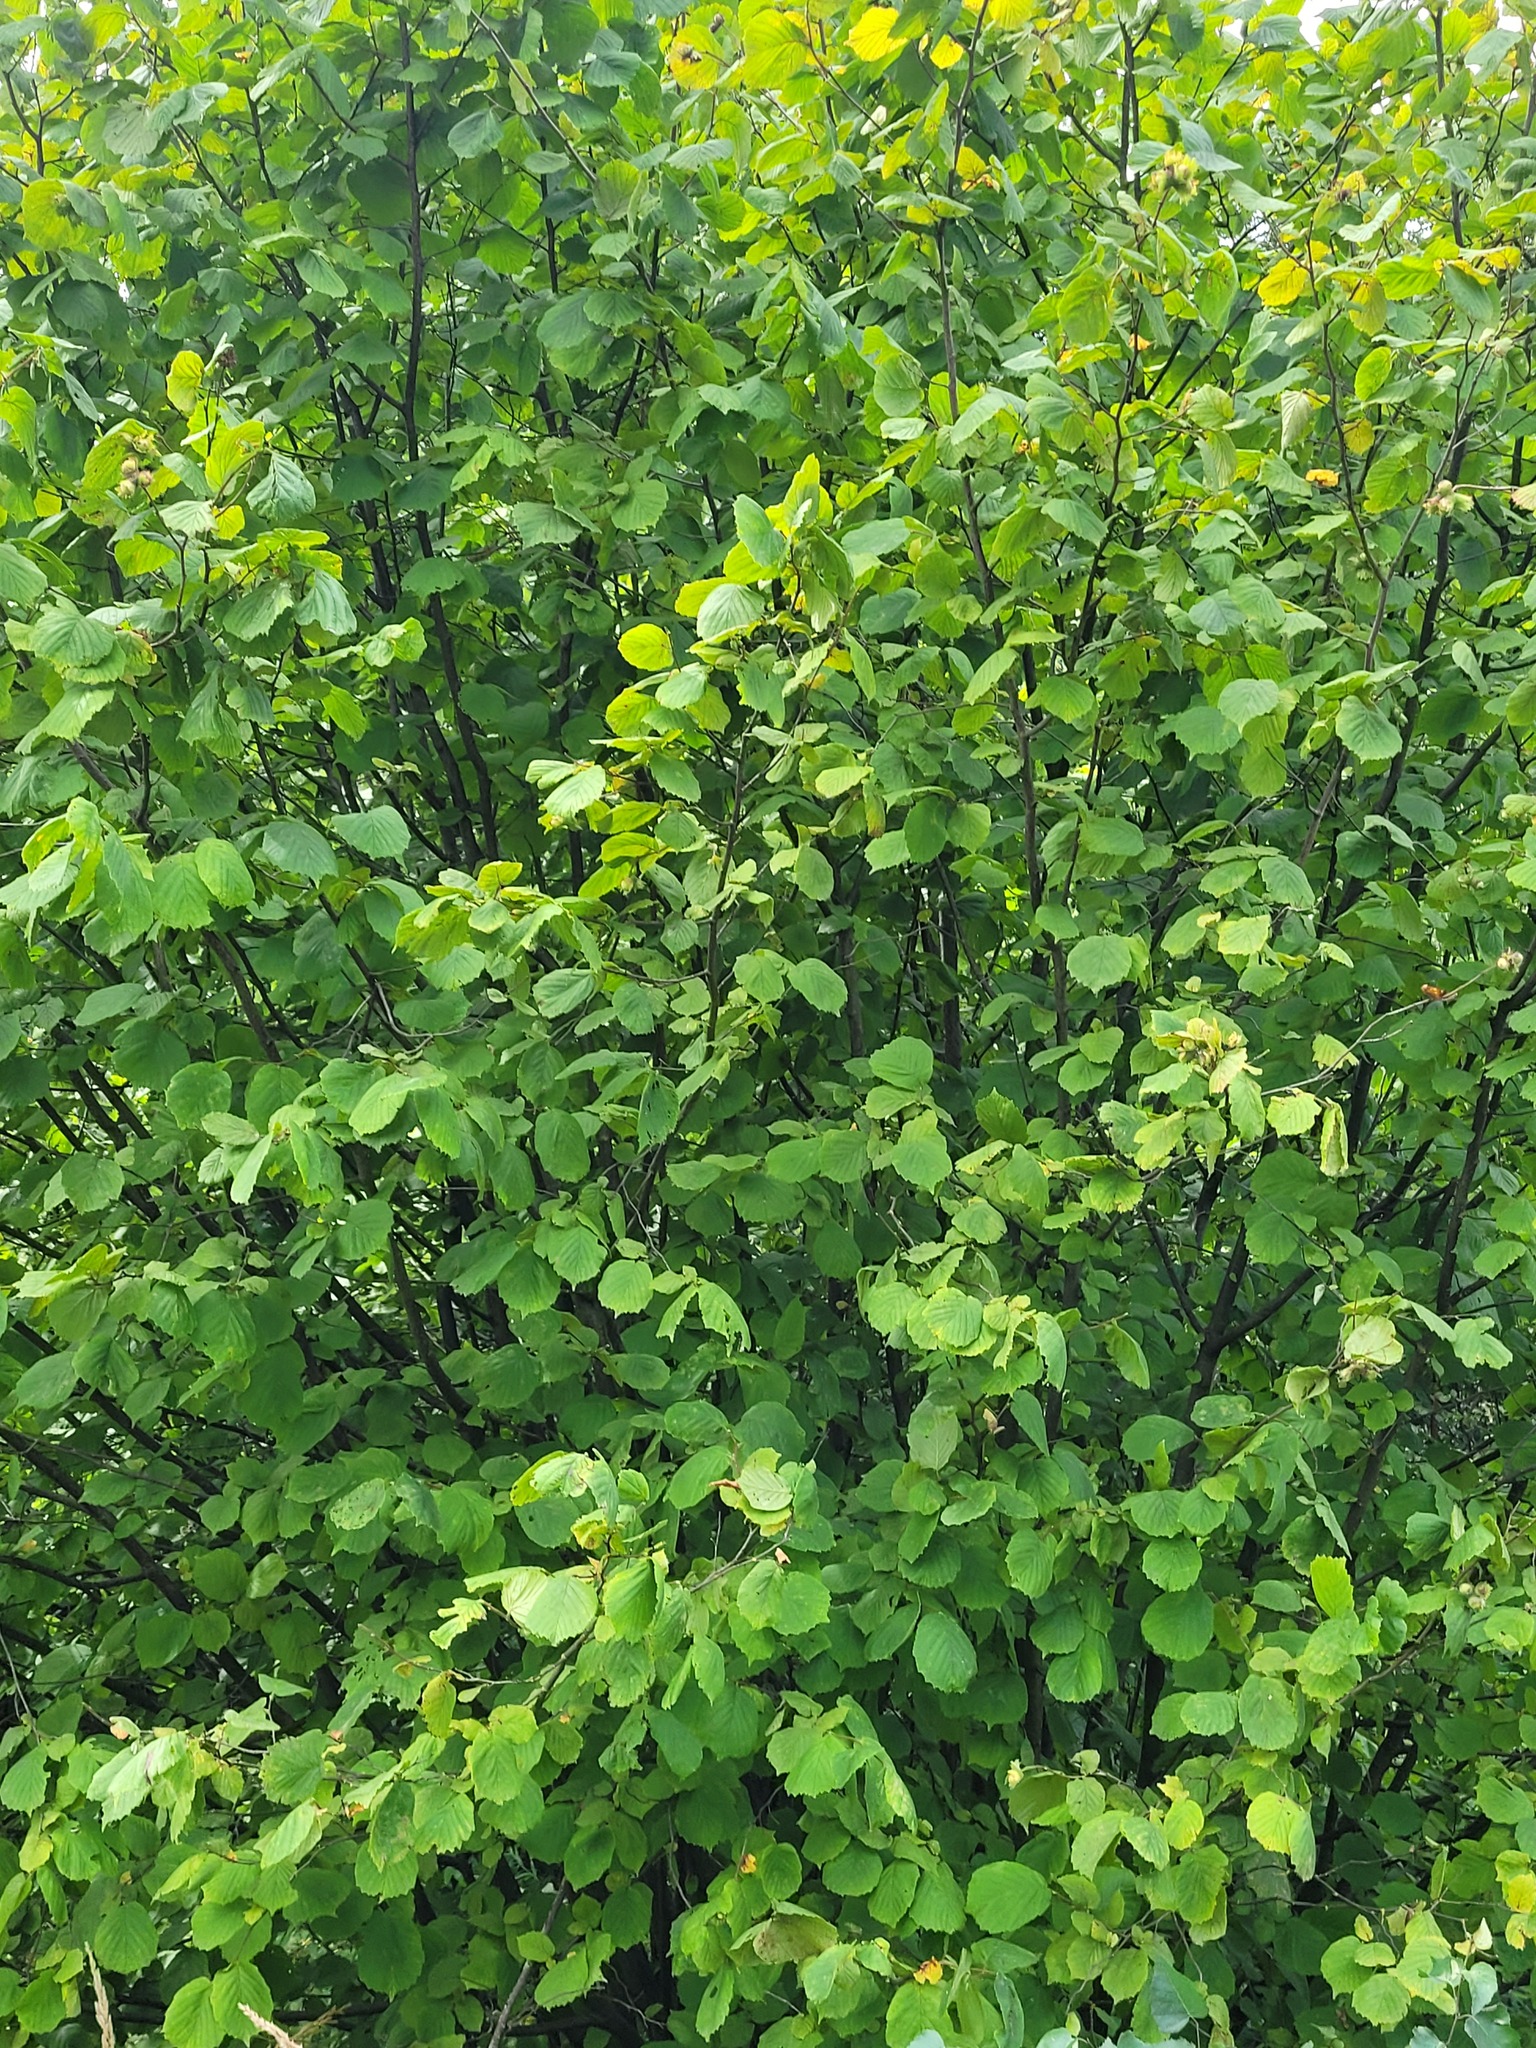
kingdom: Plantae
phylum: Tracheophyta
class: Magnoliopsida
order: Fagales
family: Betulaceae
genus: Corylus
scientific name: Corylus avellana
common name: European hazel
